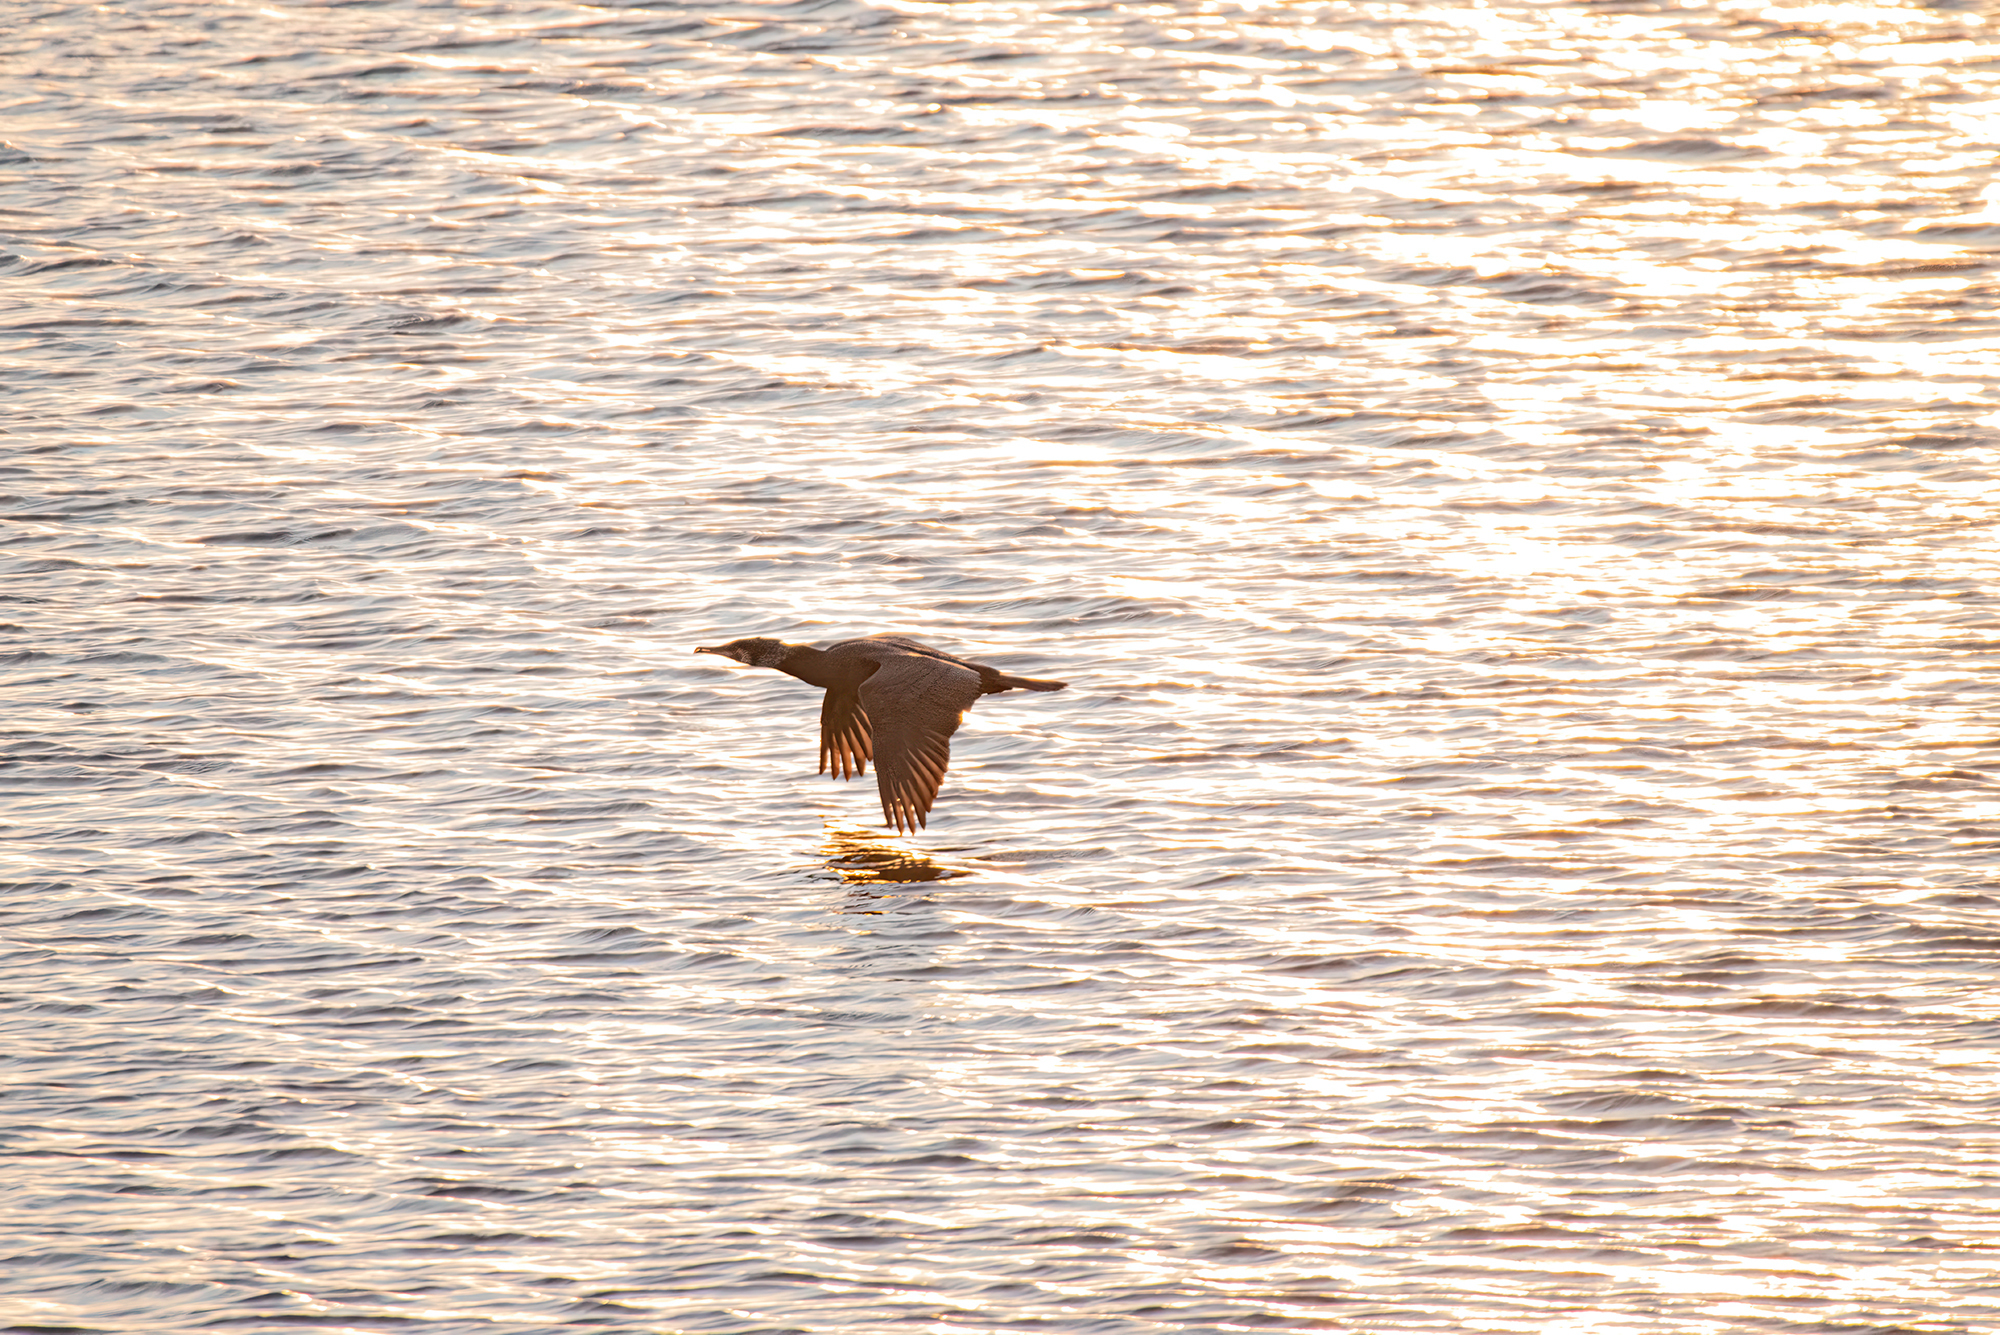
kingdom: Animalia
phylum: Chordata
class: Aves
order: Suliformes
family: Phalacrocoracidae
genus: Phalacrocorax
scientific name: Phalacrocorax carbo
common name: Great cormorant
